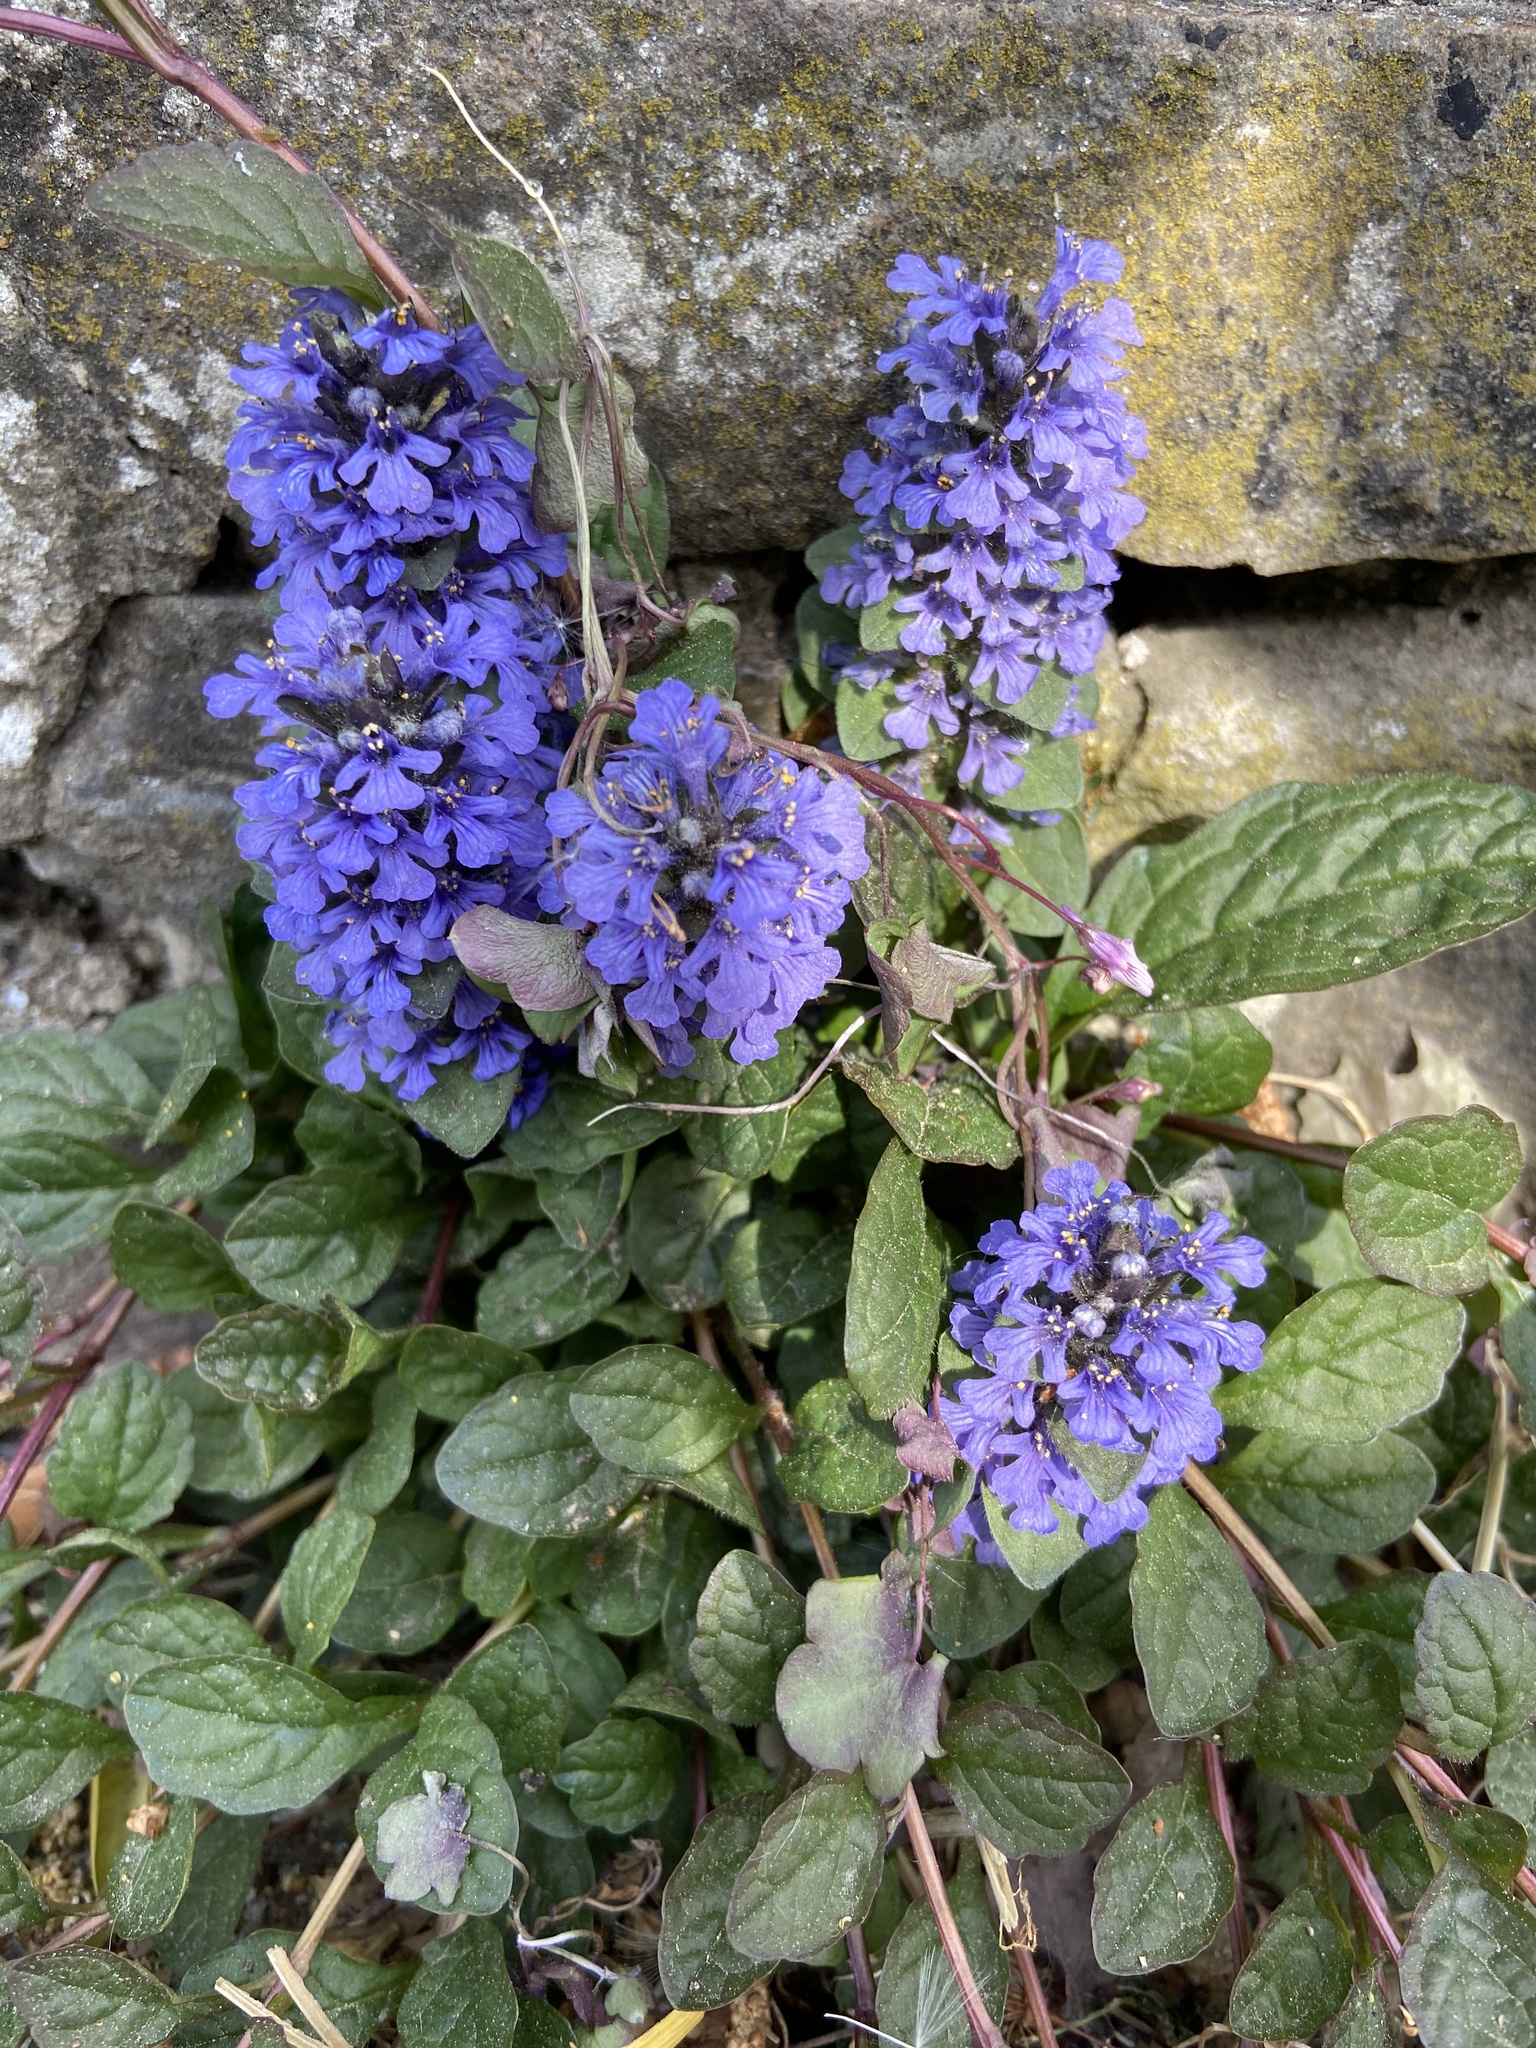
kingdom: Plantae
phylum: Tracheophyta
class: Magnoliopsida
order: Lamiales
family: Lamiaceae
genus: Ajuga
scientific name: Ajuga reptans
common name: Bugle
